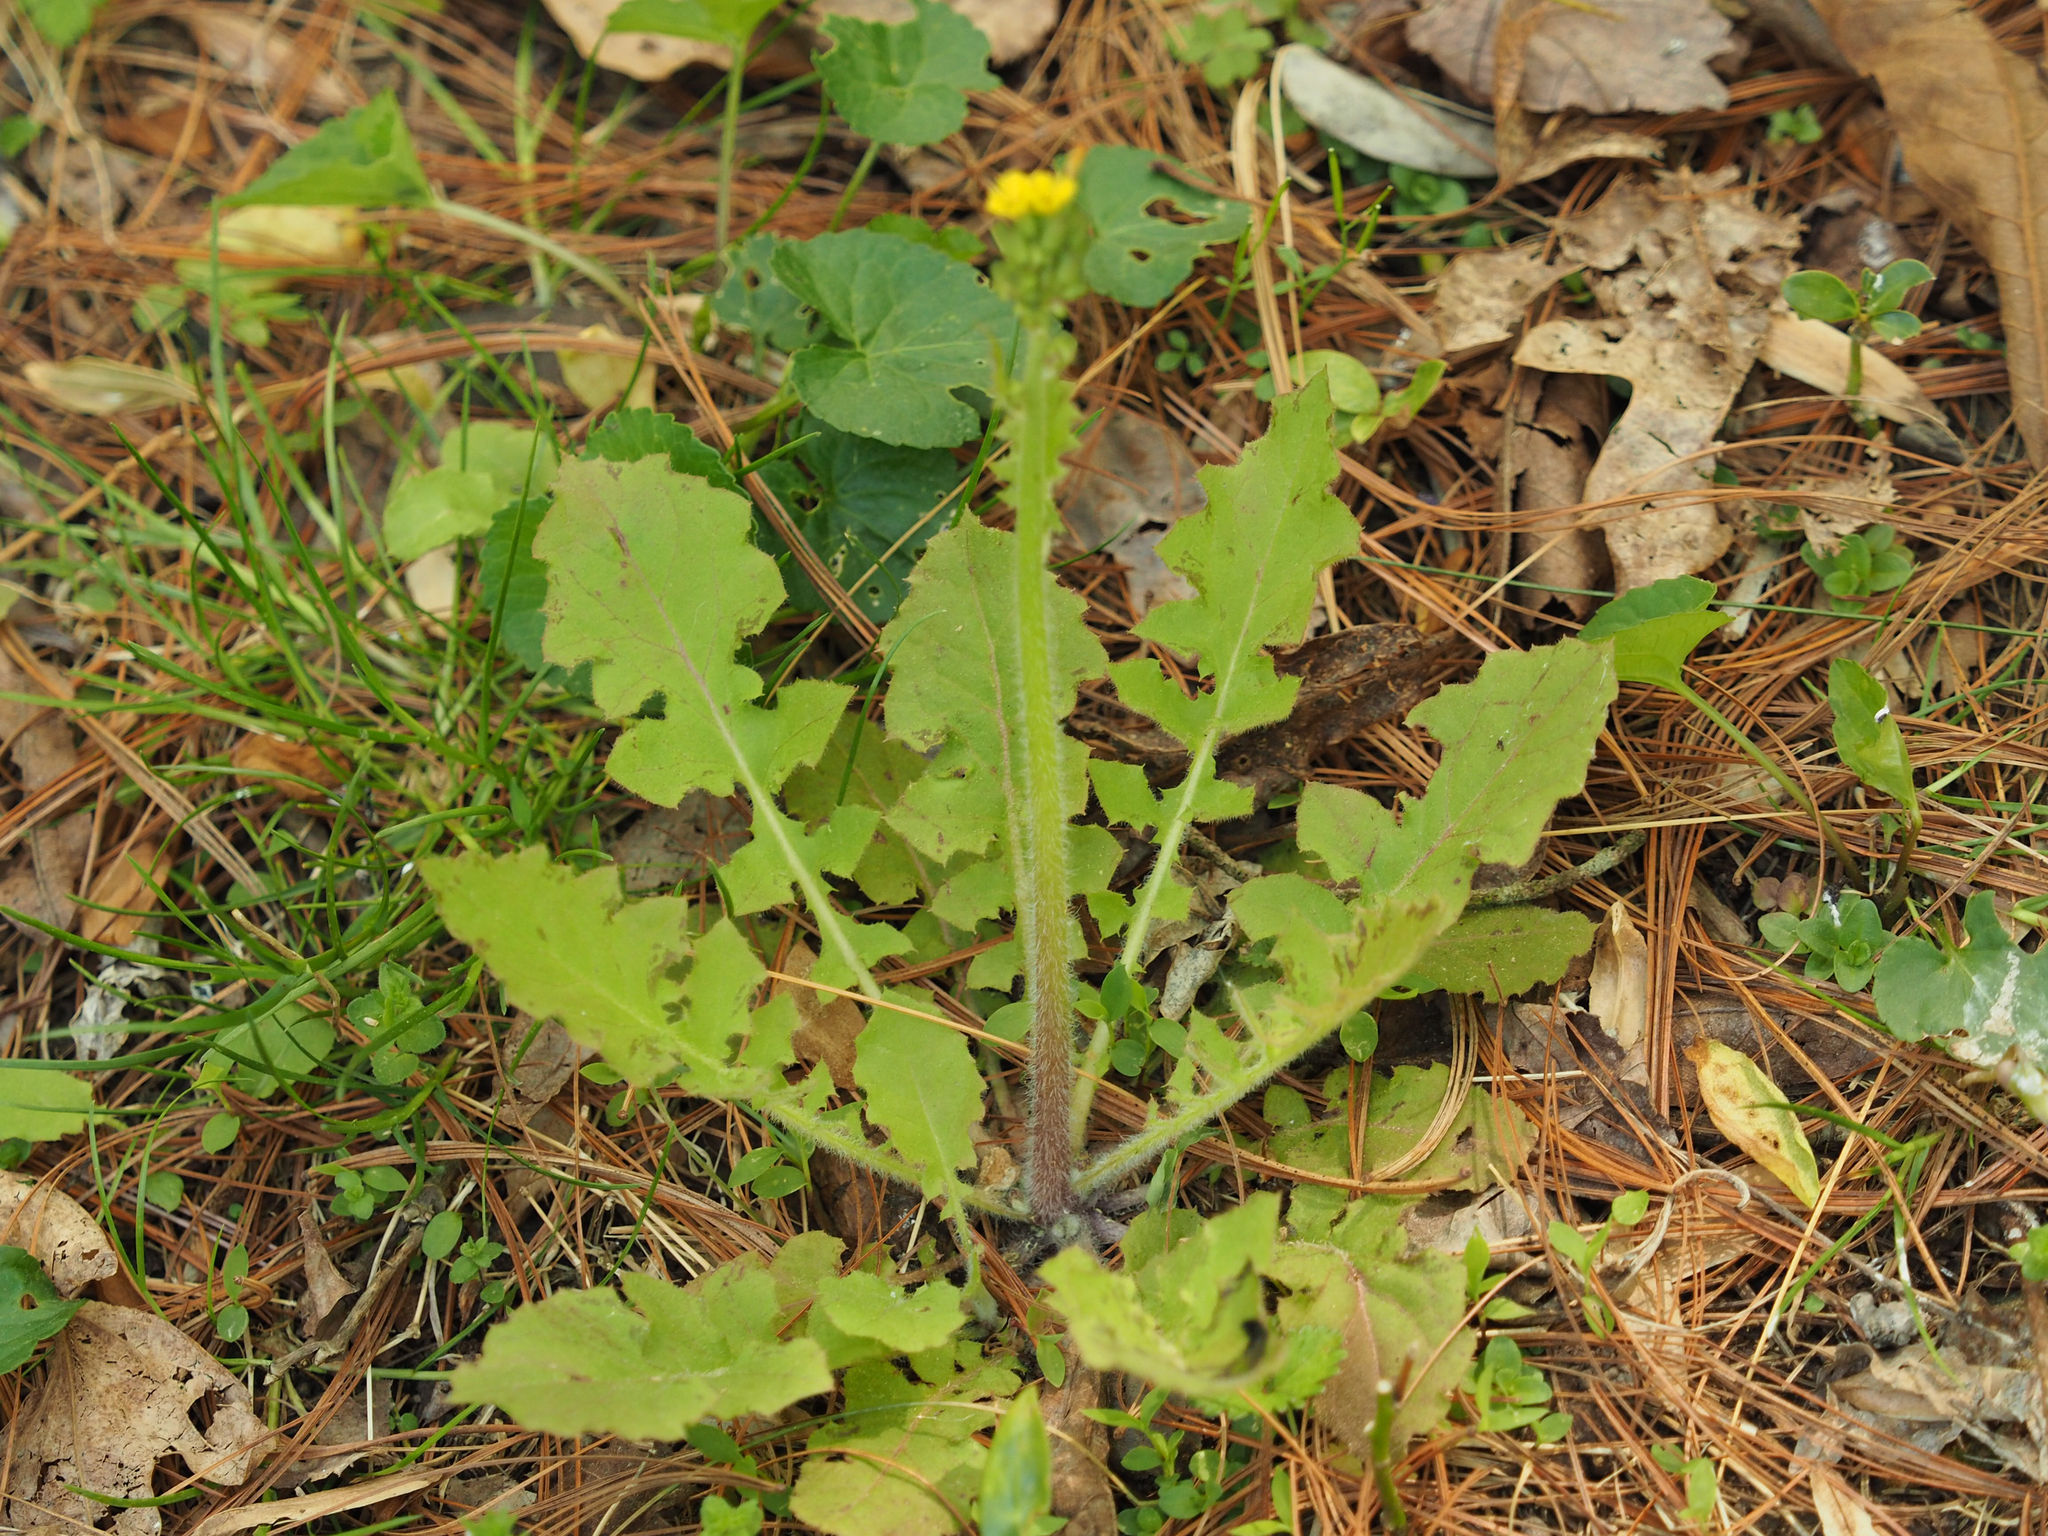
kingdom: Plantae
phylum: Tracheophyta
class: Magnoliopsida
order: Asterales
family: Asteraceae
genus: Youngia
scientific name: Youngia japonica
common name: Oriental false hawksbeard
